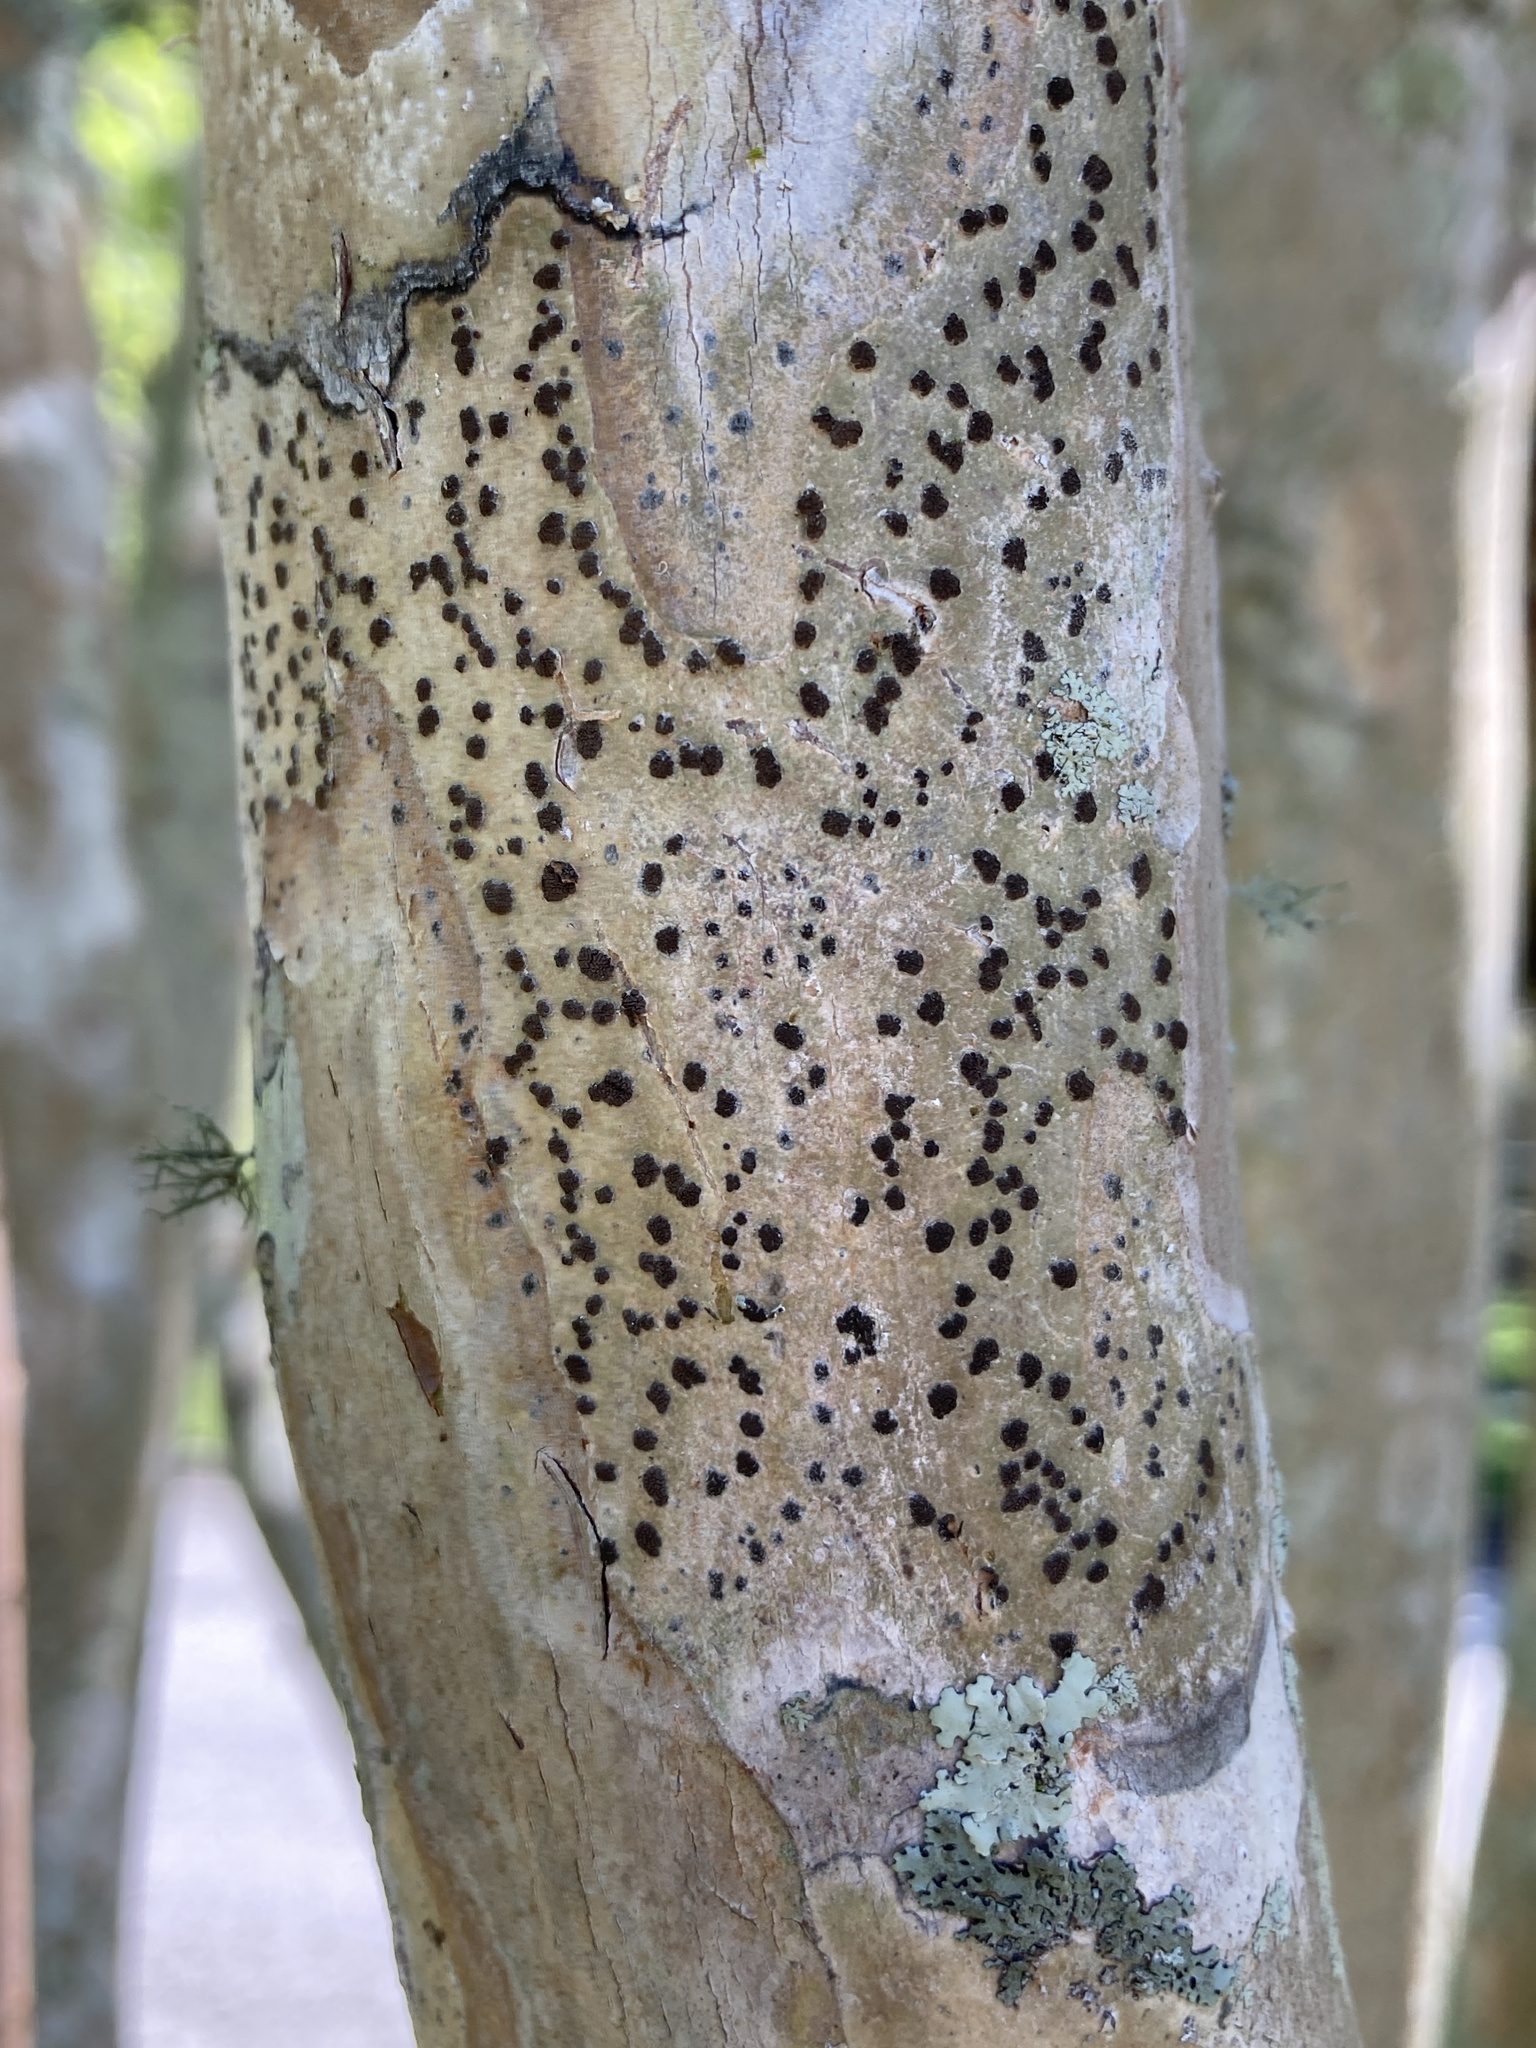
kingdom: Fungi
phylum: Ascomycota
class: Lecanoromycetes
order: Ostropales
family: Graphidaceae
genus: Glyphis
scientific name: Glyphis cicatricosa
